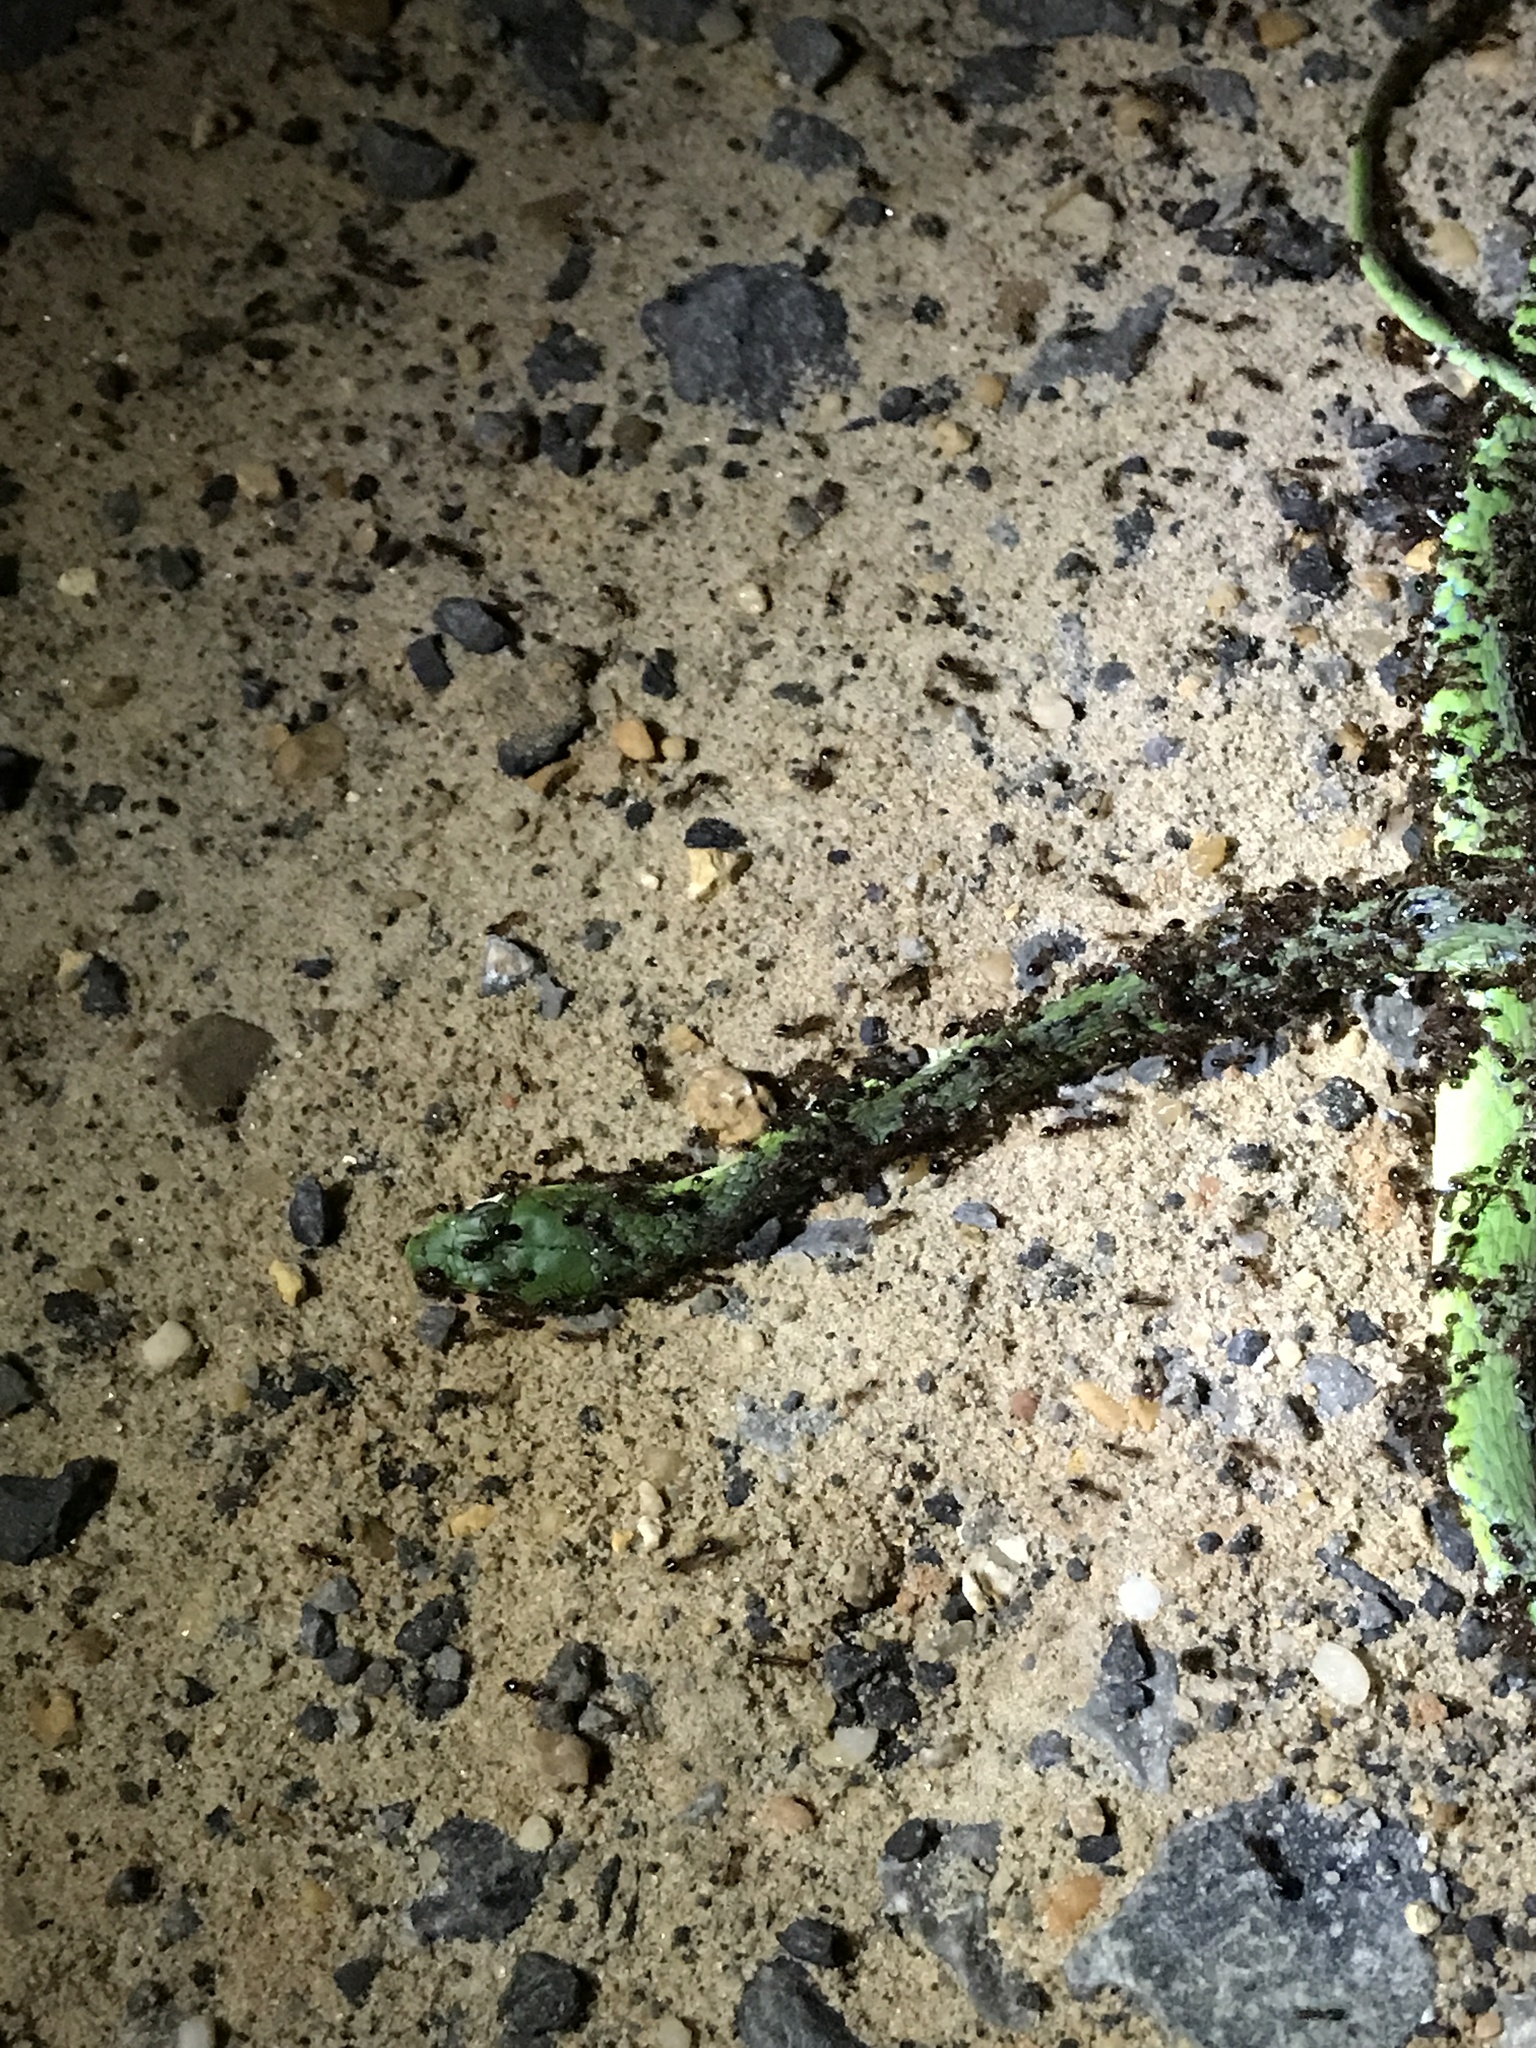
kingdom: Animalia
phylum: Chordata
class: Squamata
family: Colubridae
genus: Opheodrys
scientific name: Opheodrys aestivus
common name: Rough greensnake
